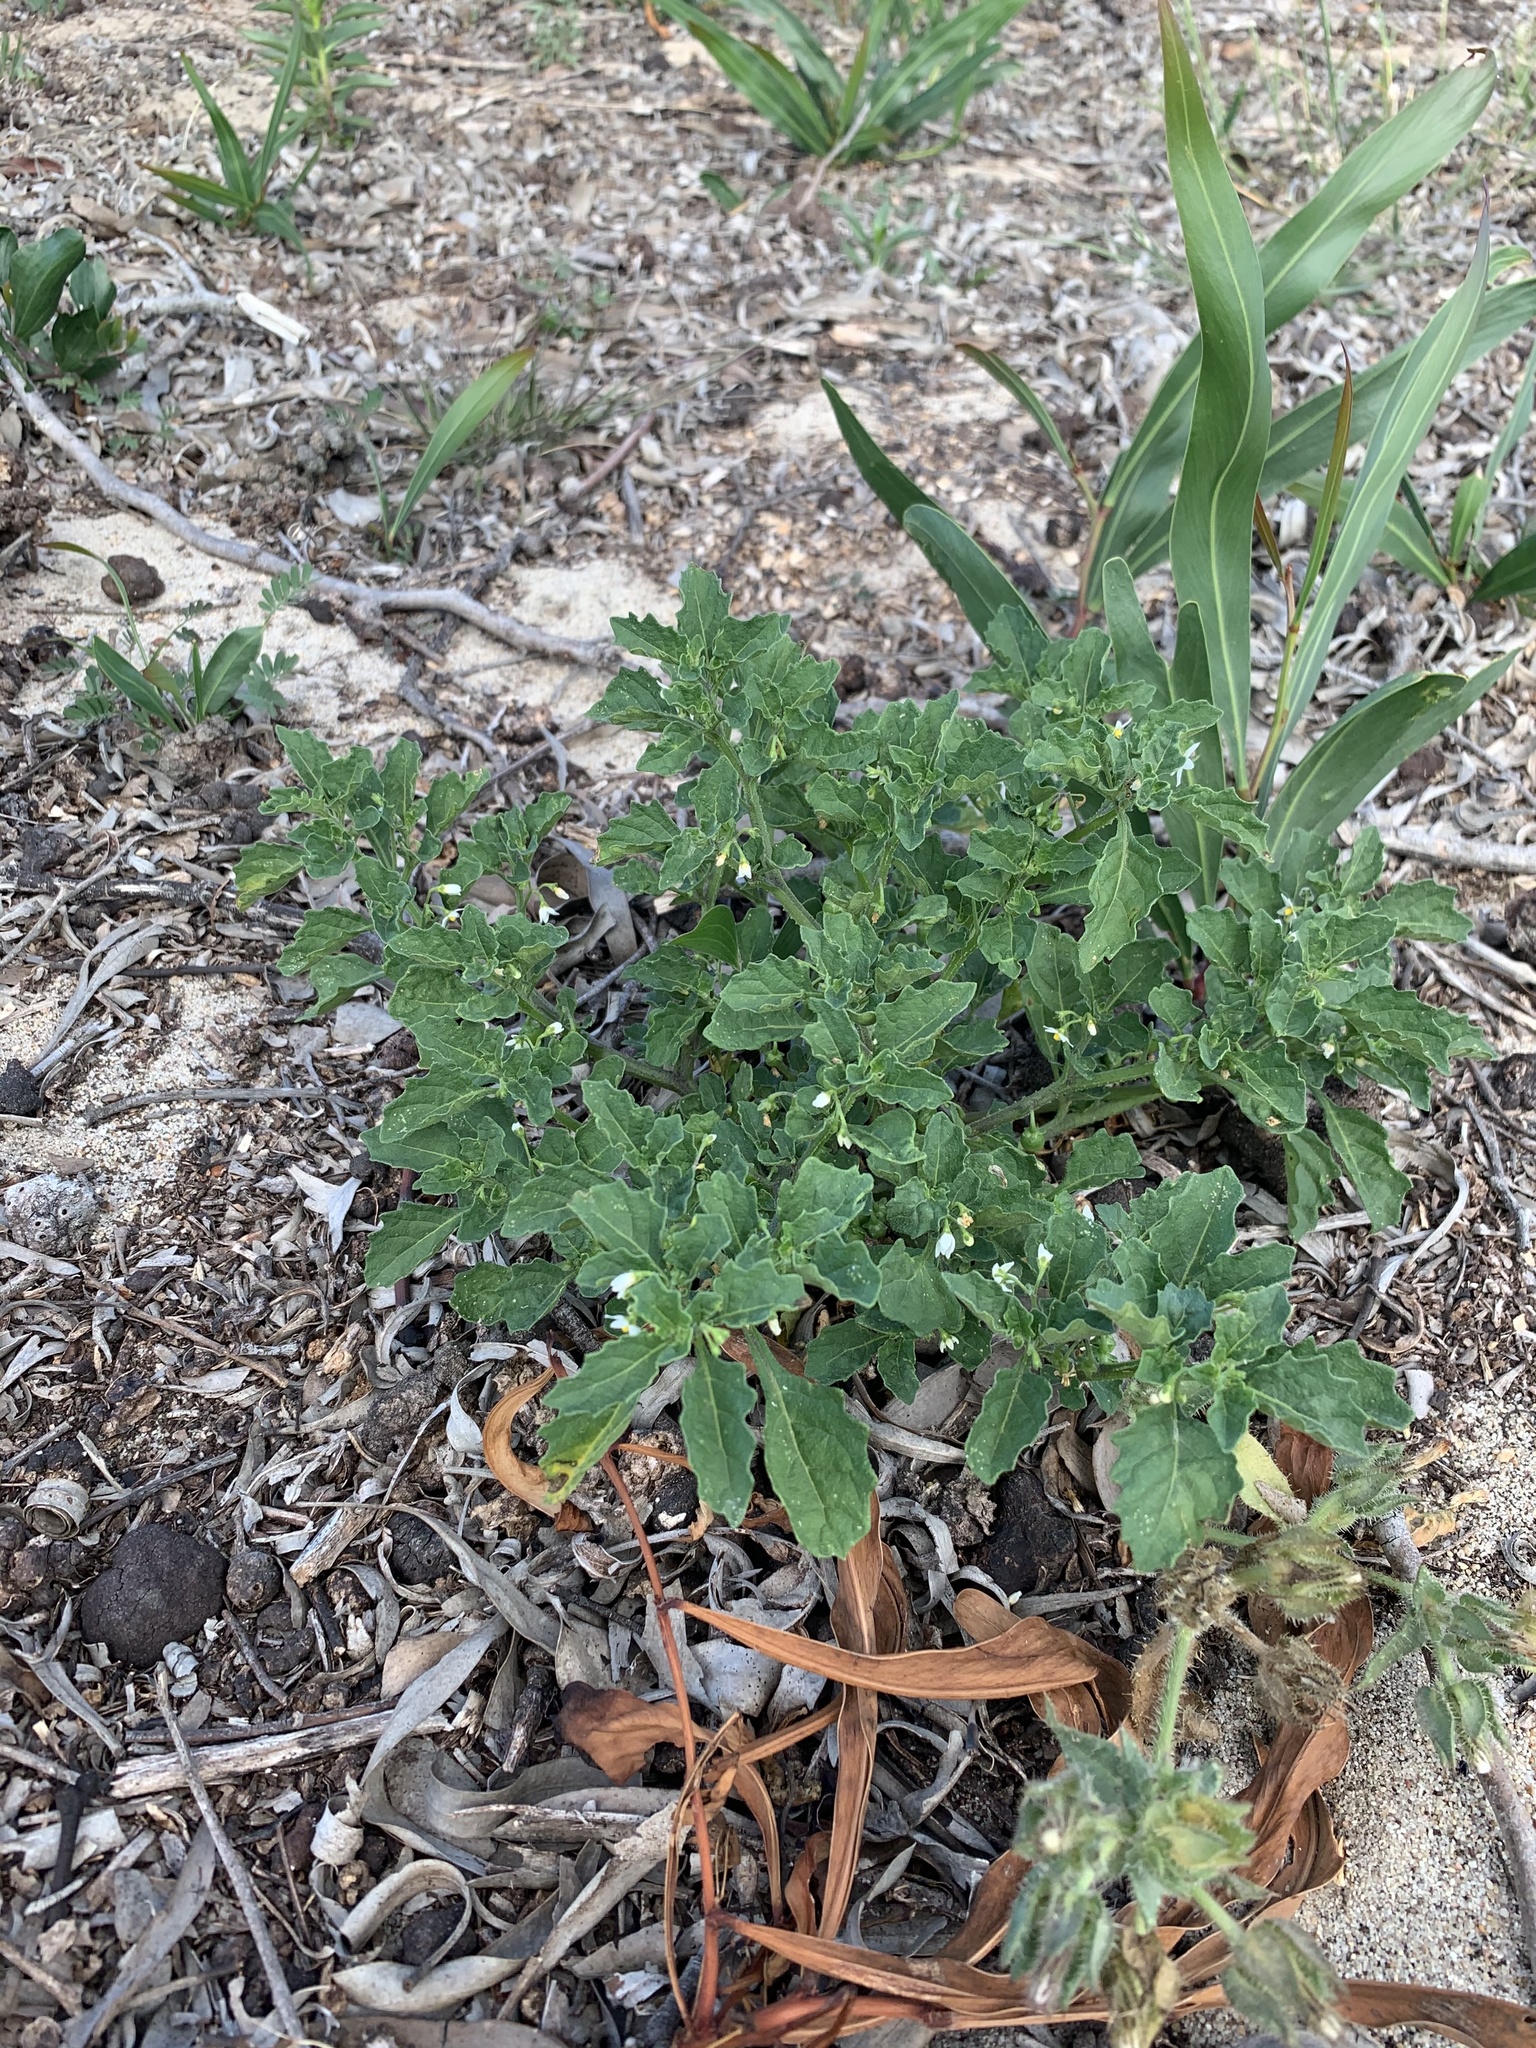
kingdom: Plantae
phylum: Tracheophyta
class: Magnoliopsida
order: Solanales
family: Solanaceae
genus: Solanum
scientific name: Solanum retroflexum
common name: Wonderberry
